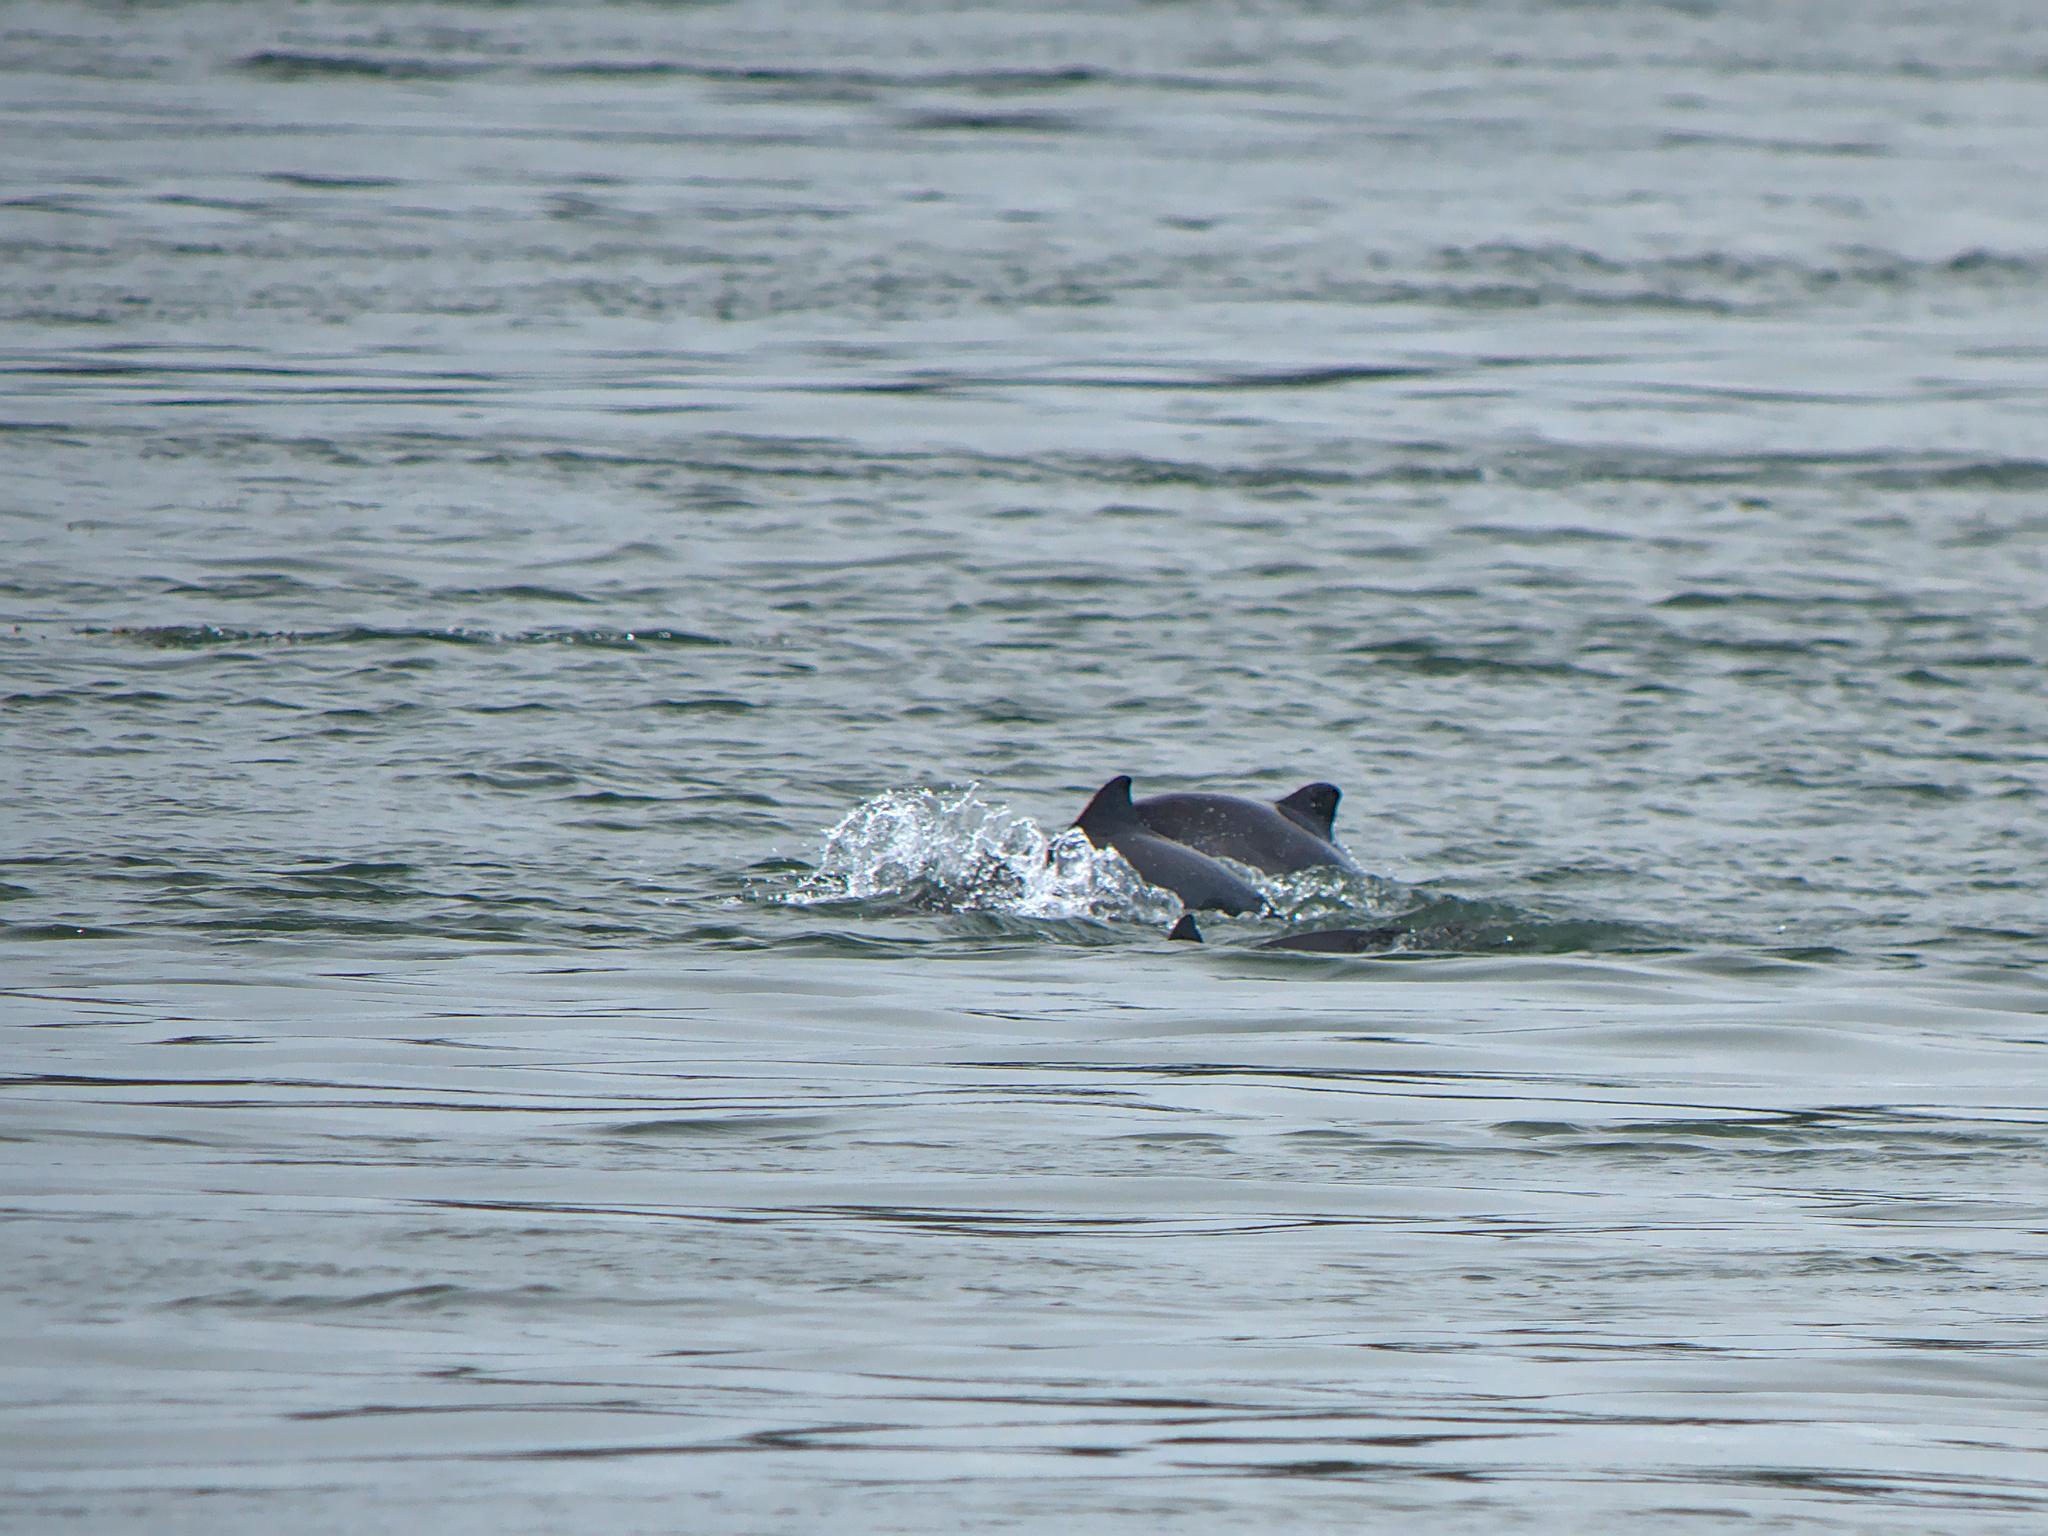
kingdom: Animalia
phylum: Chordata
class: Mammalia
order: Cetacea
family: Phocoenidae
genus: Phocoena
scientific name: Phocoena phocoena
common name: Harbor porpoise
